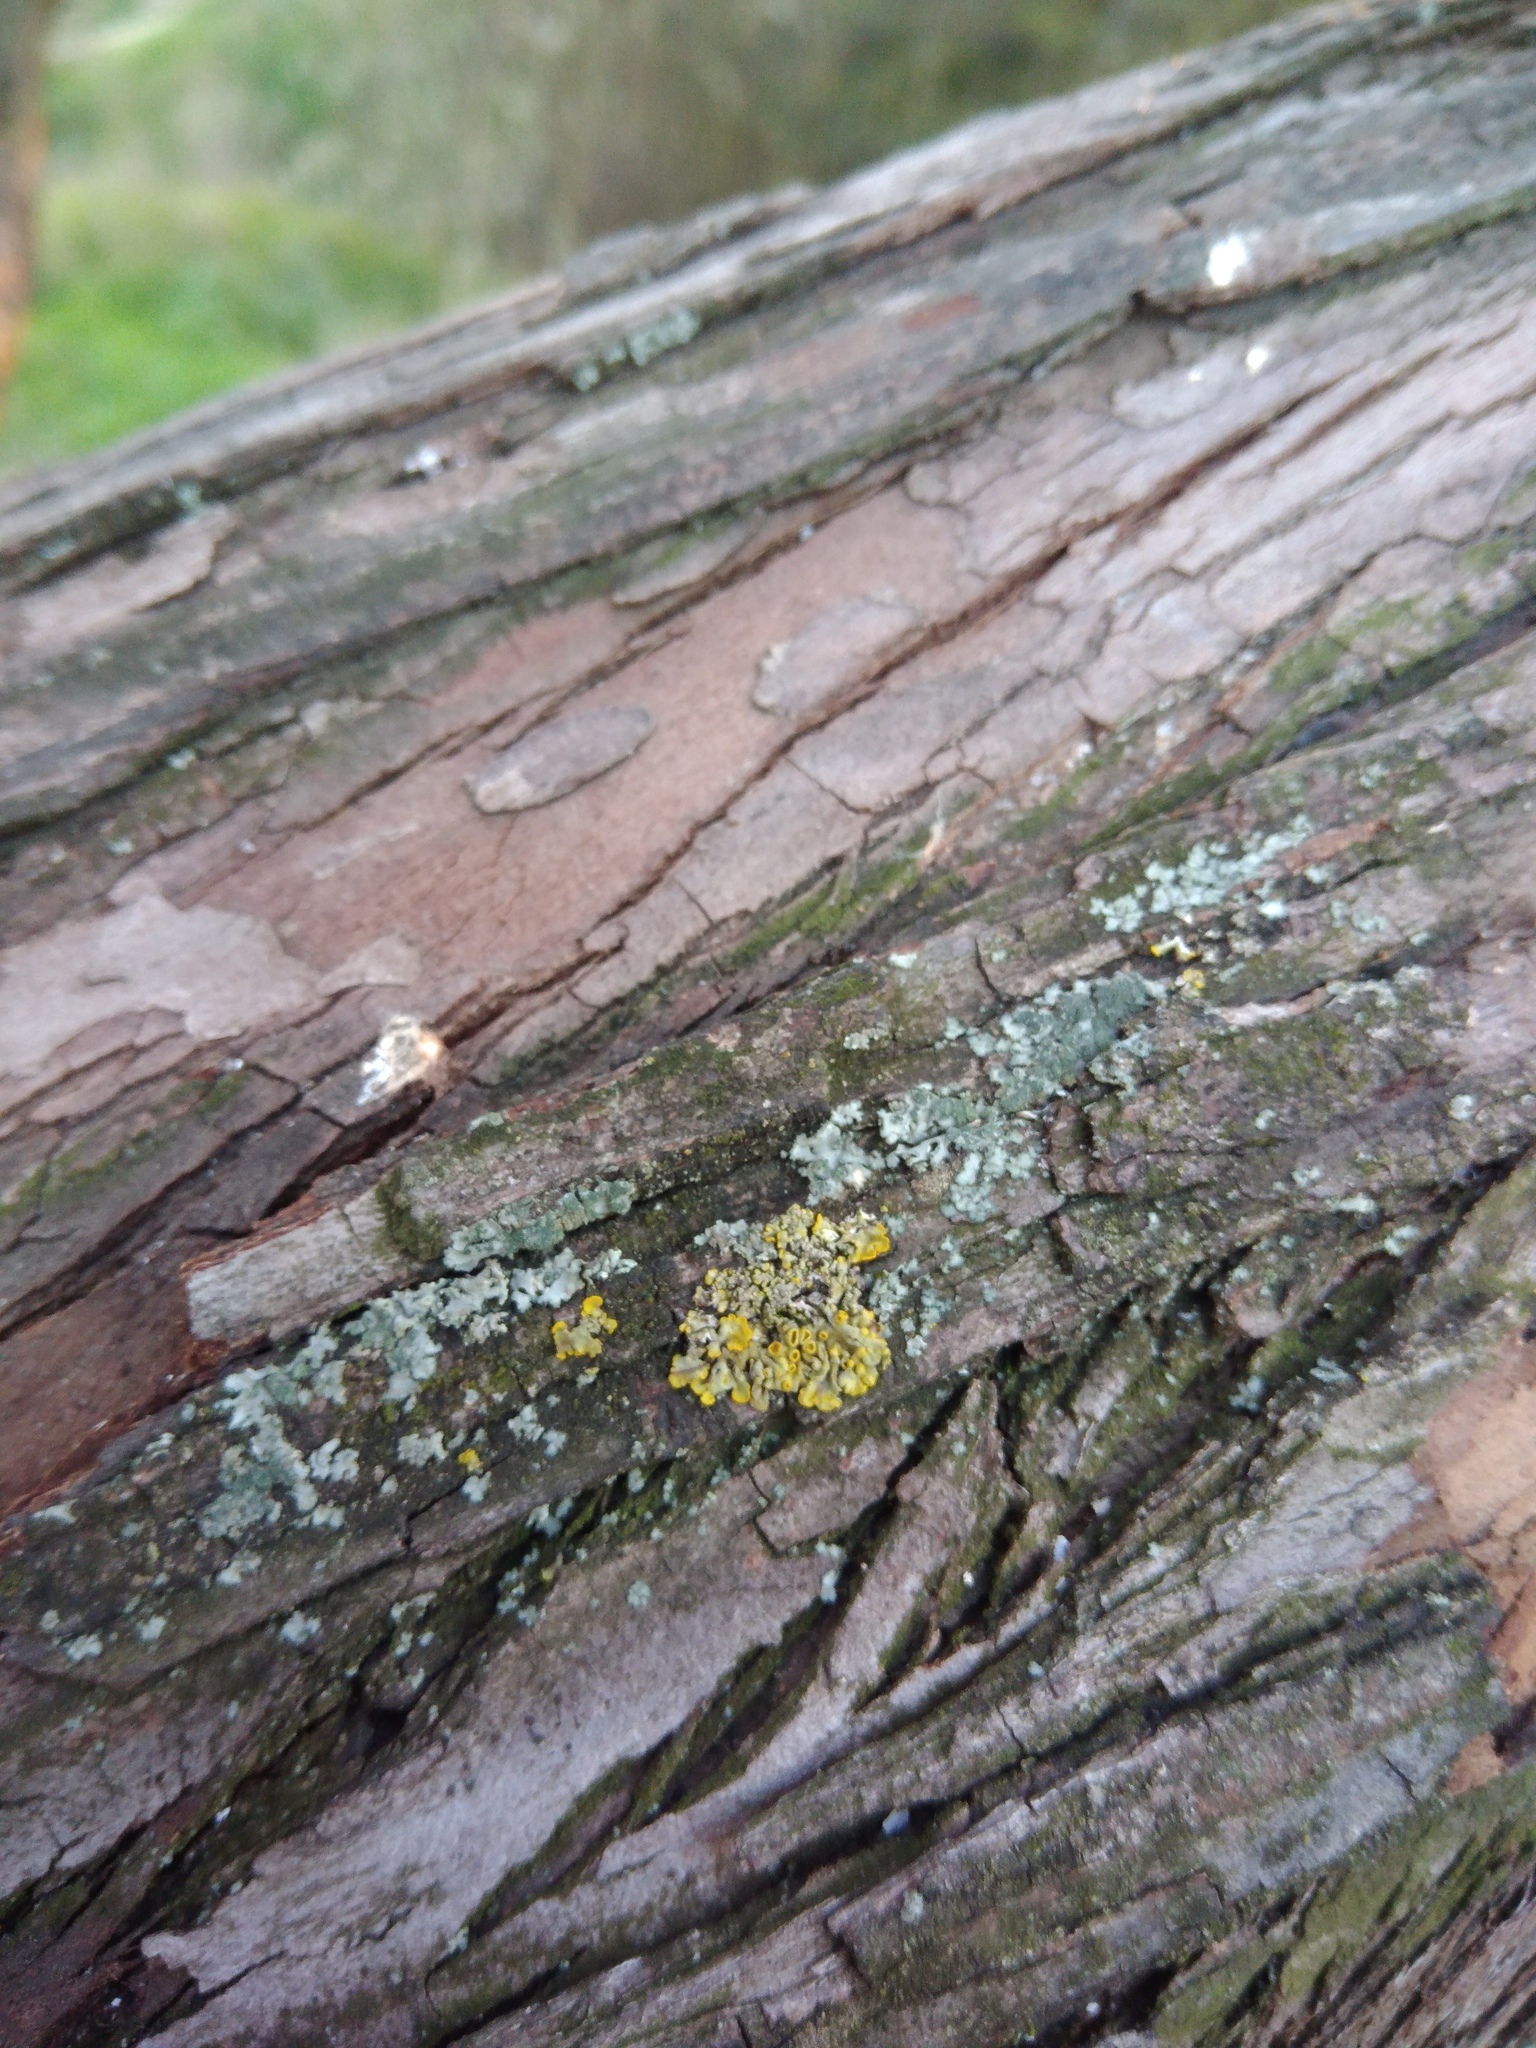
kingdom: Fungi
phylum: Ascomycota
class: Lecanoromycetes
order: Teloschistales
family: Teloschistaceae
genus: Xanthoria
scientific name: Xanthoria parietina
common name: Common orange lichen
